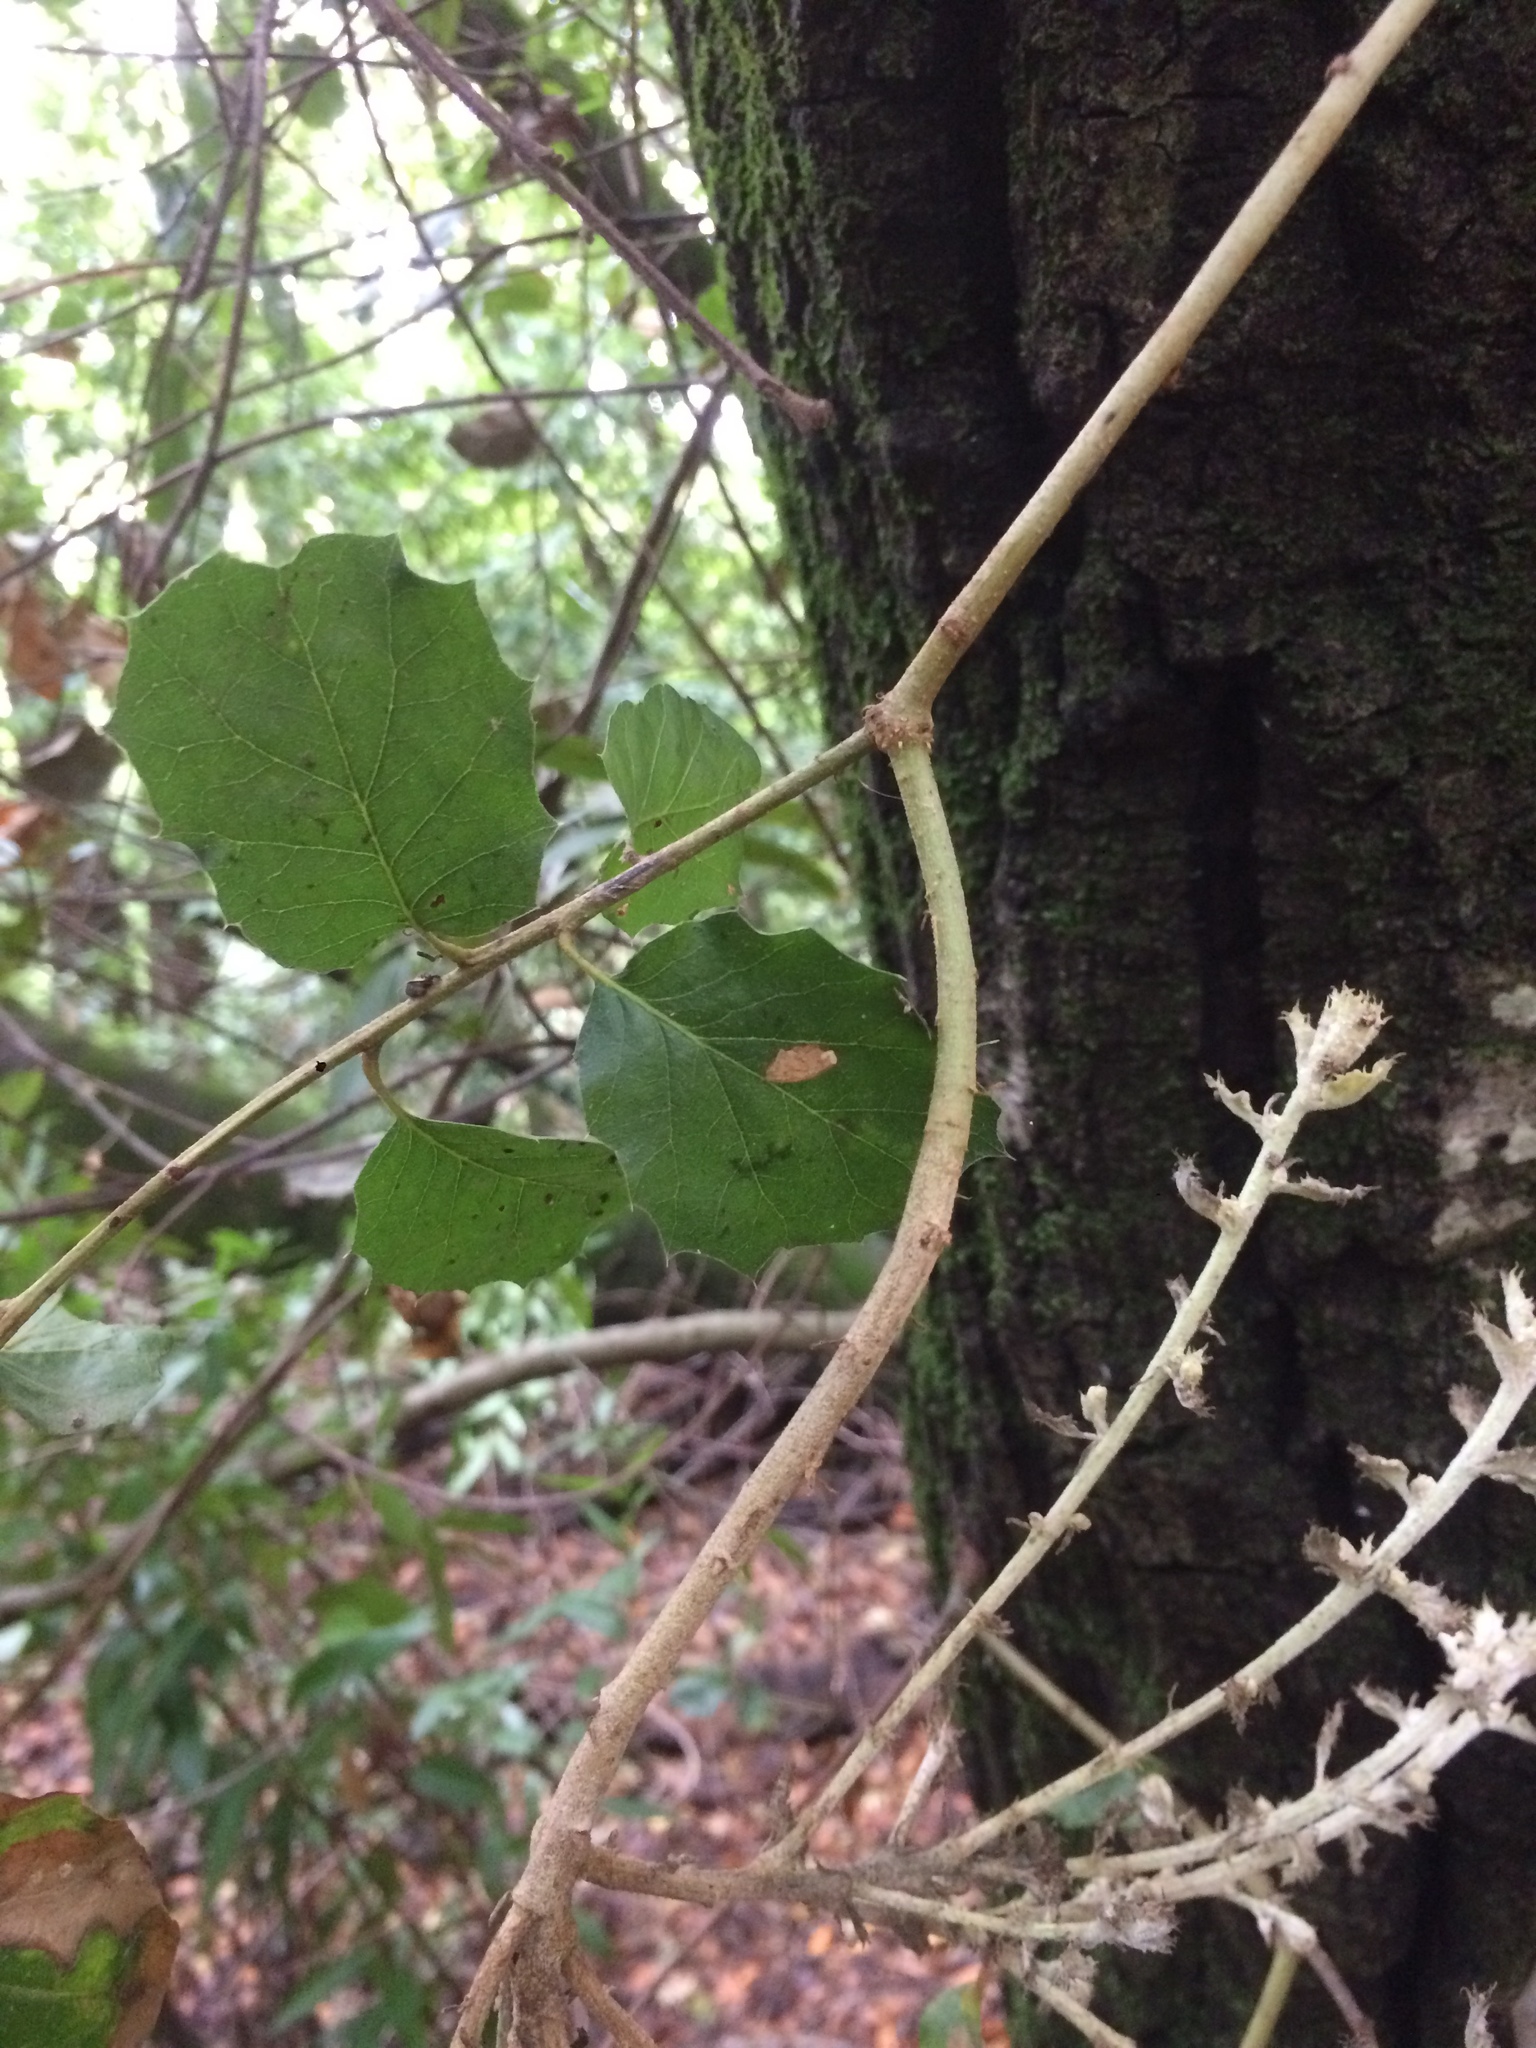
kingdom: Fungi
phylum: Ascomycota
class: Leotiomycetes
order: Helotiales
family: Erysiphaceae
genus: Cystotheca
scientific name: Cystotheca lanestris
